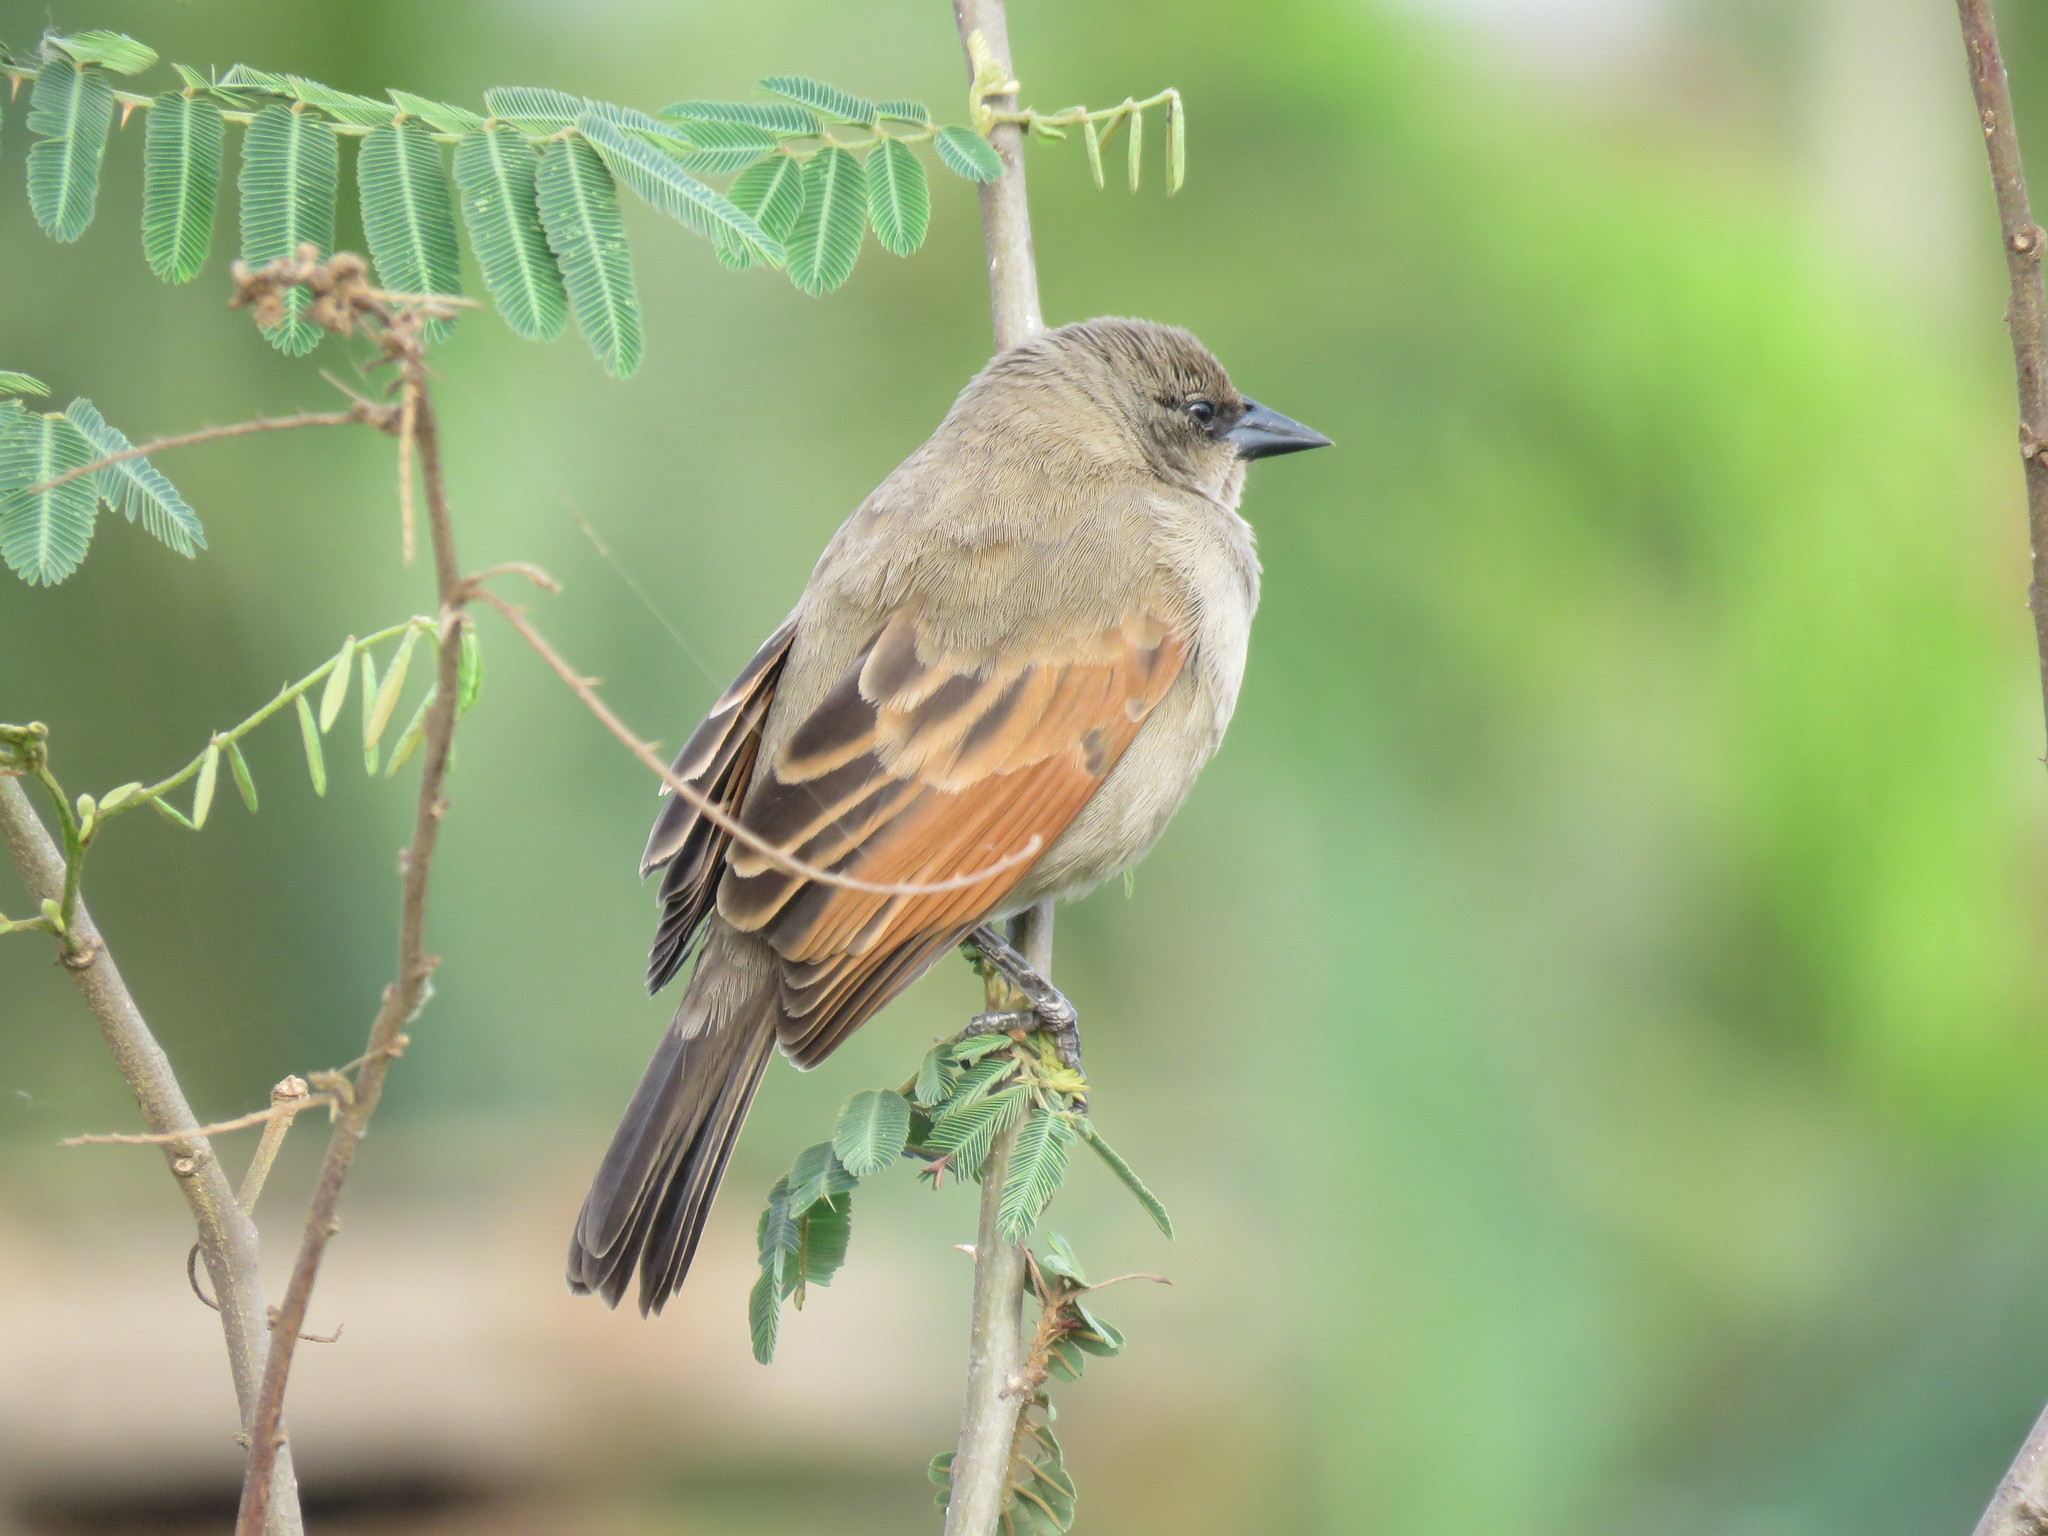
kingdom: Animalia
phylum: Chordata
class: Aves
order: Passeriformes
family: Icteridae
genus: Agelaioides
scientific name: Agelaioides badius
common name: Baywing
